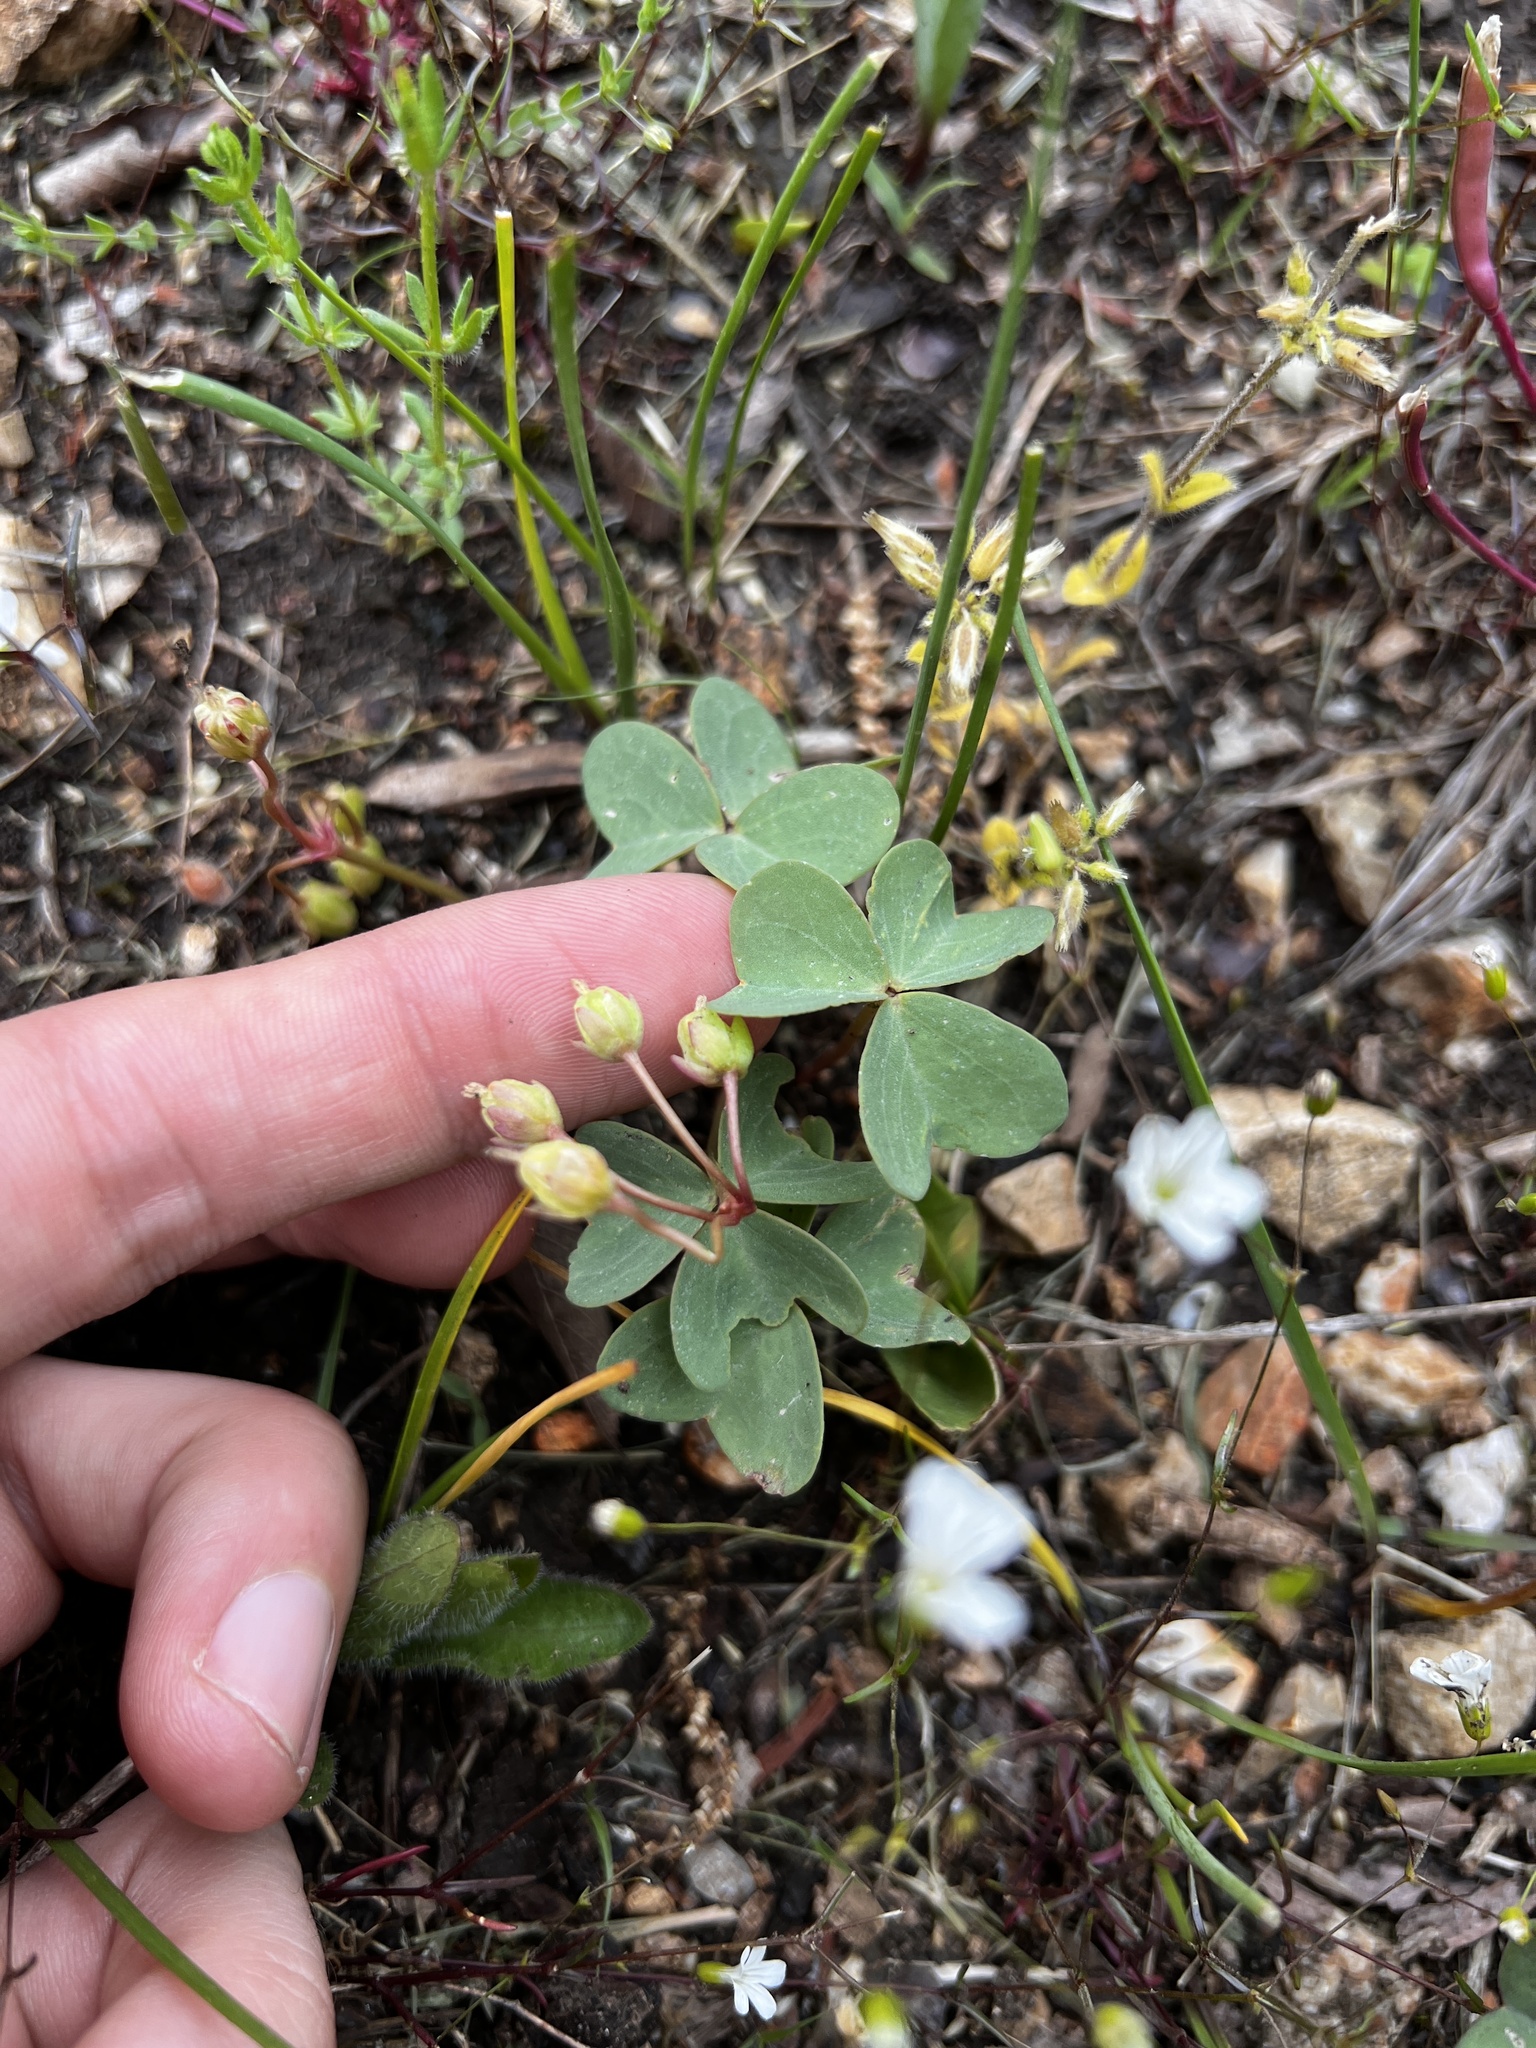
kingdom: Plantae
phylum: Tracheophyta
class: Magnoliopsida
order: Oxalidales
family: Oxalidaceae
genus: Oxalis
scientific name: Oxalis violacea
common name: Violet wood-sorrel
